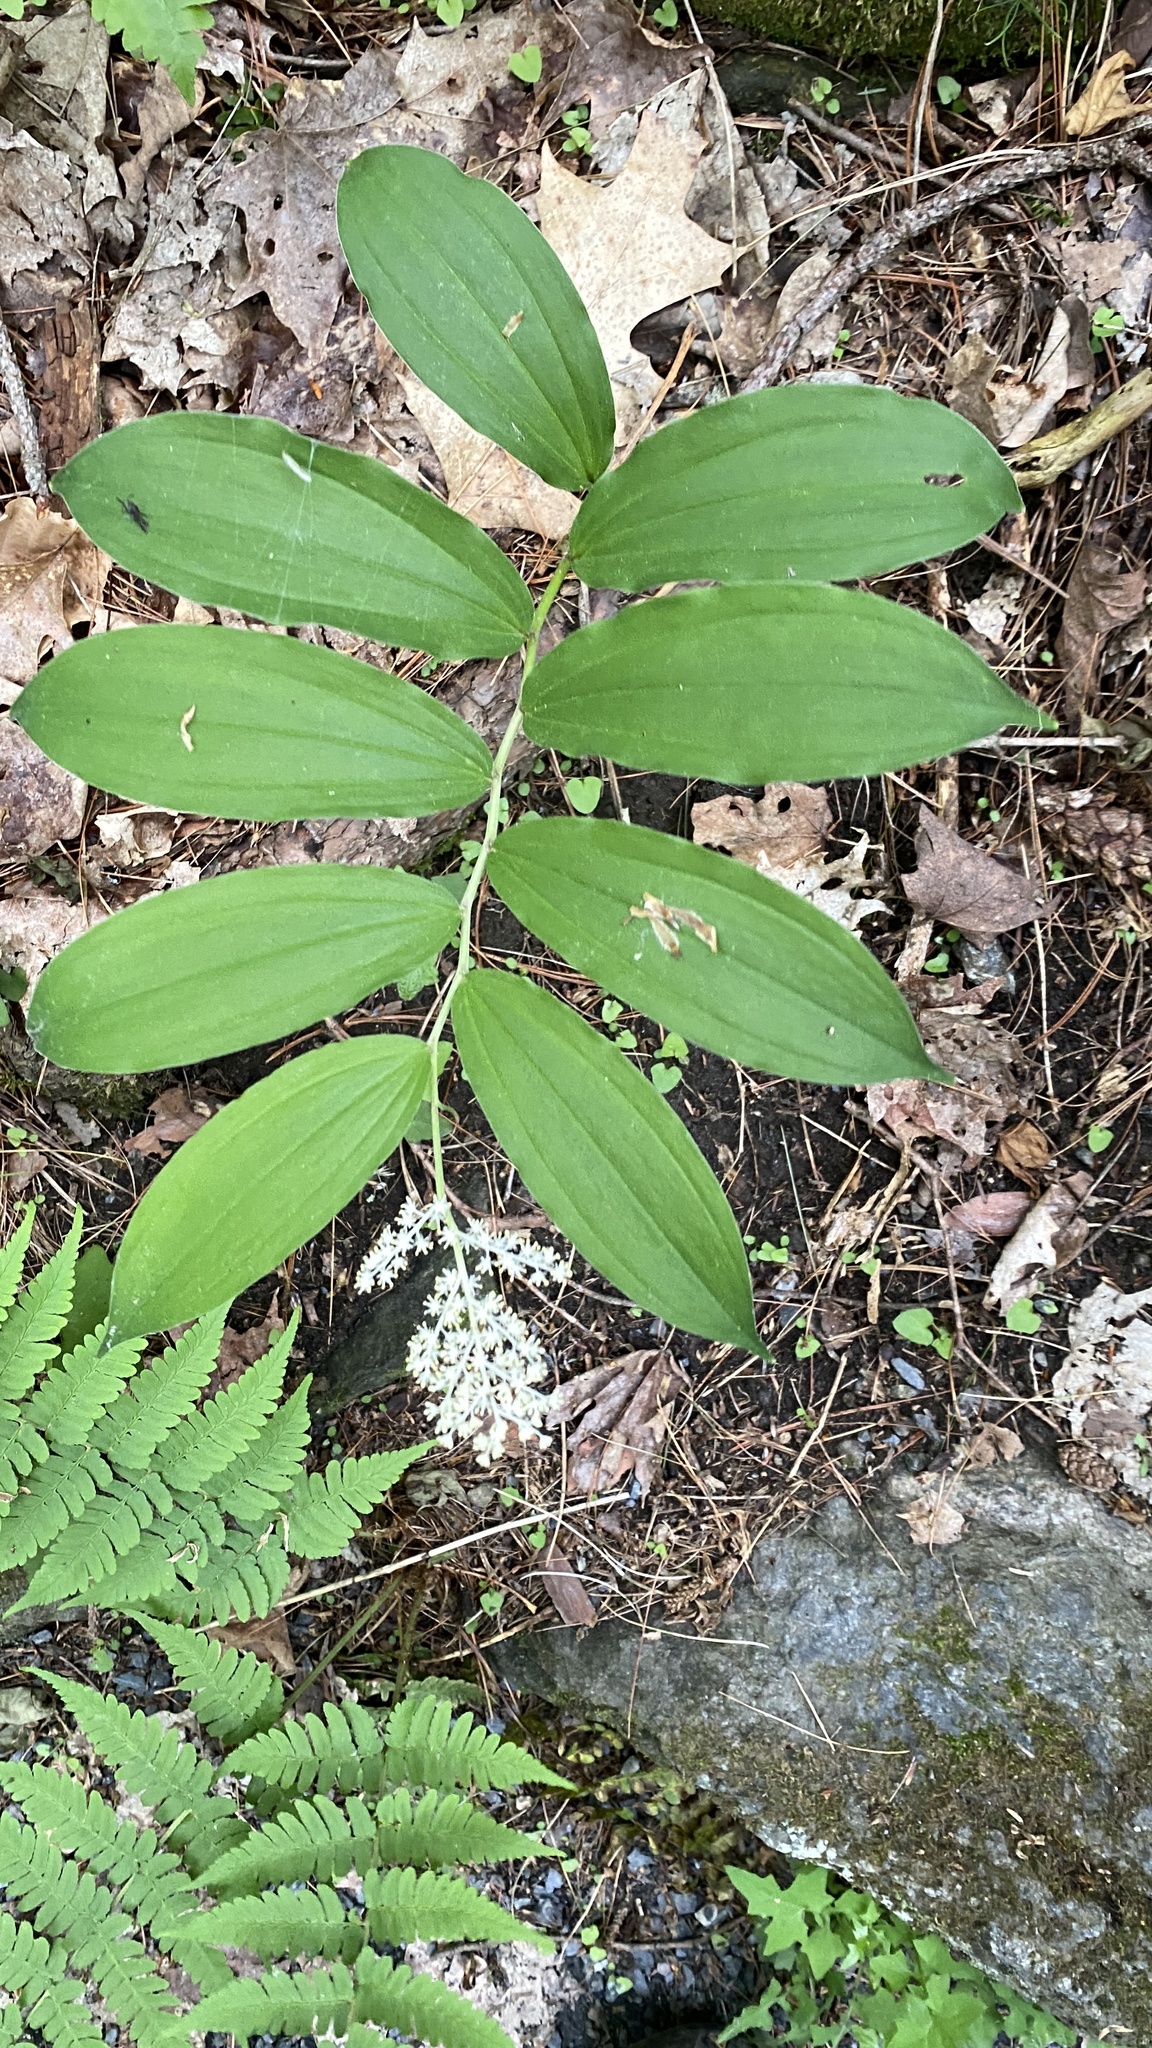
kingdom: Plantae
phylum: Tracheophyta
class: Liliopsida
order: Asparagales
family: Asparagaceae
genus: Maianthemum
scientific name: Maianthemum racemosum
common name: False spikenard
